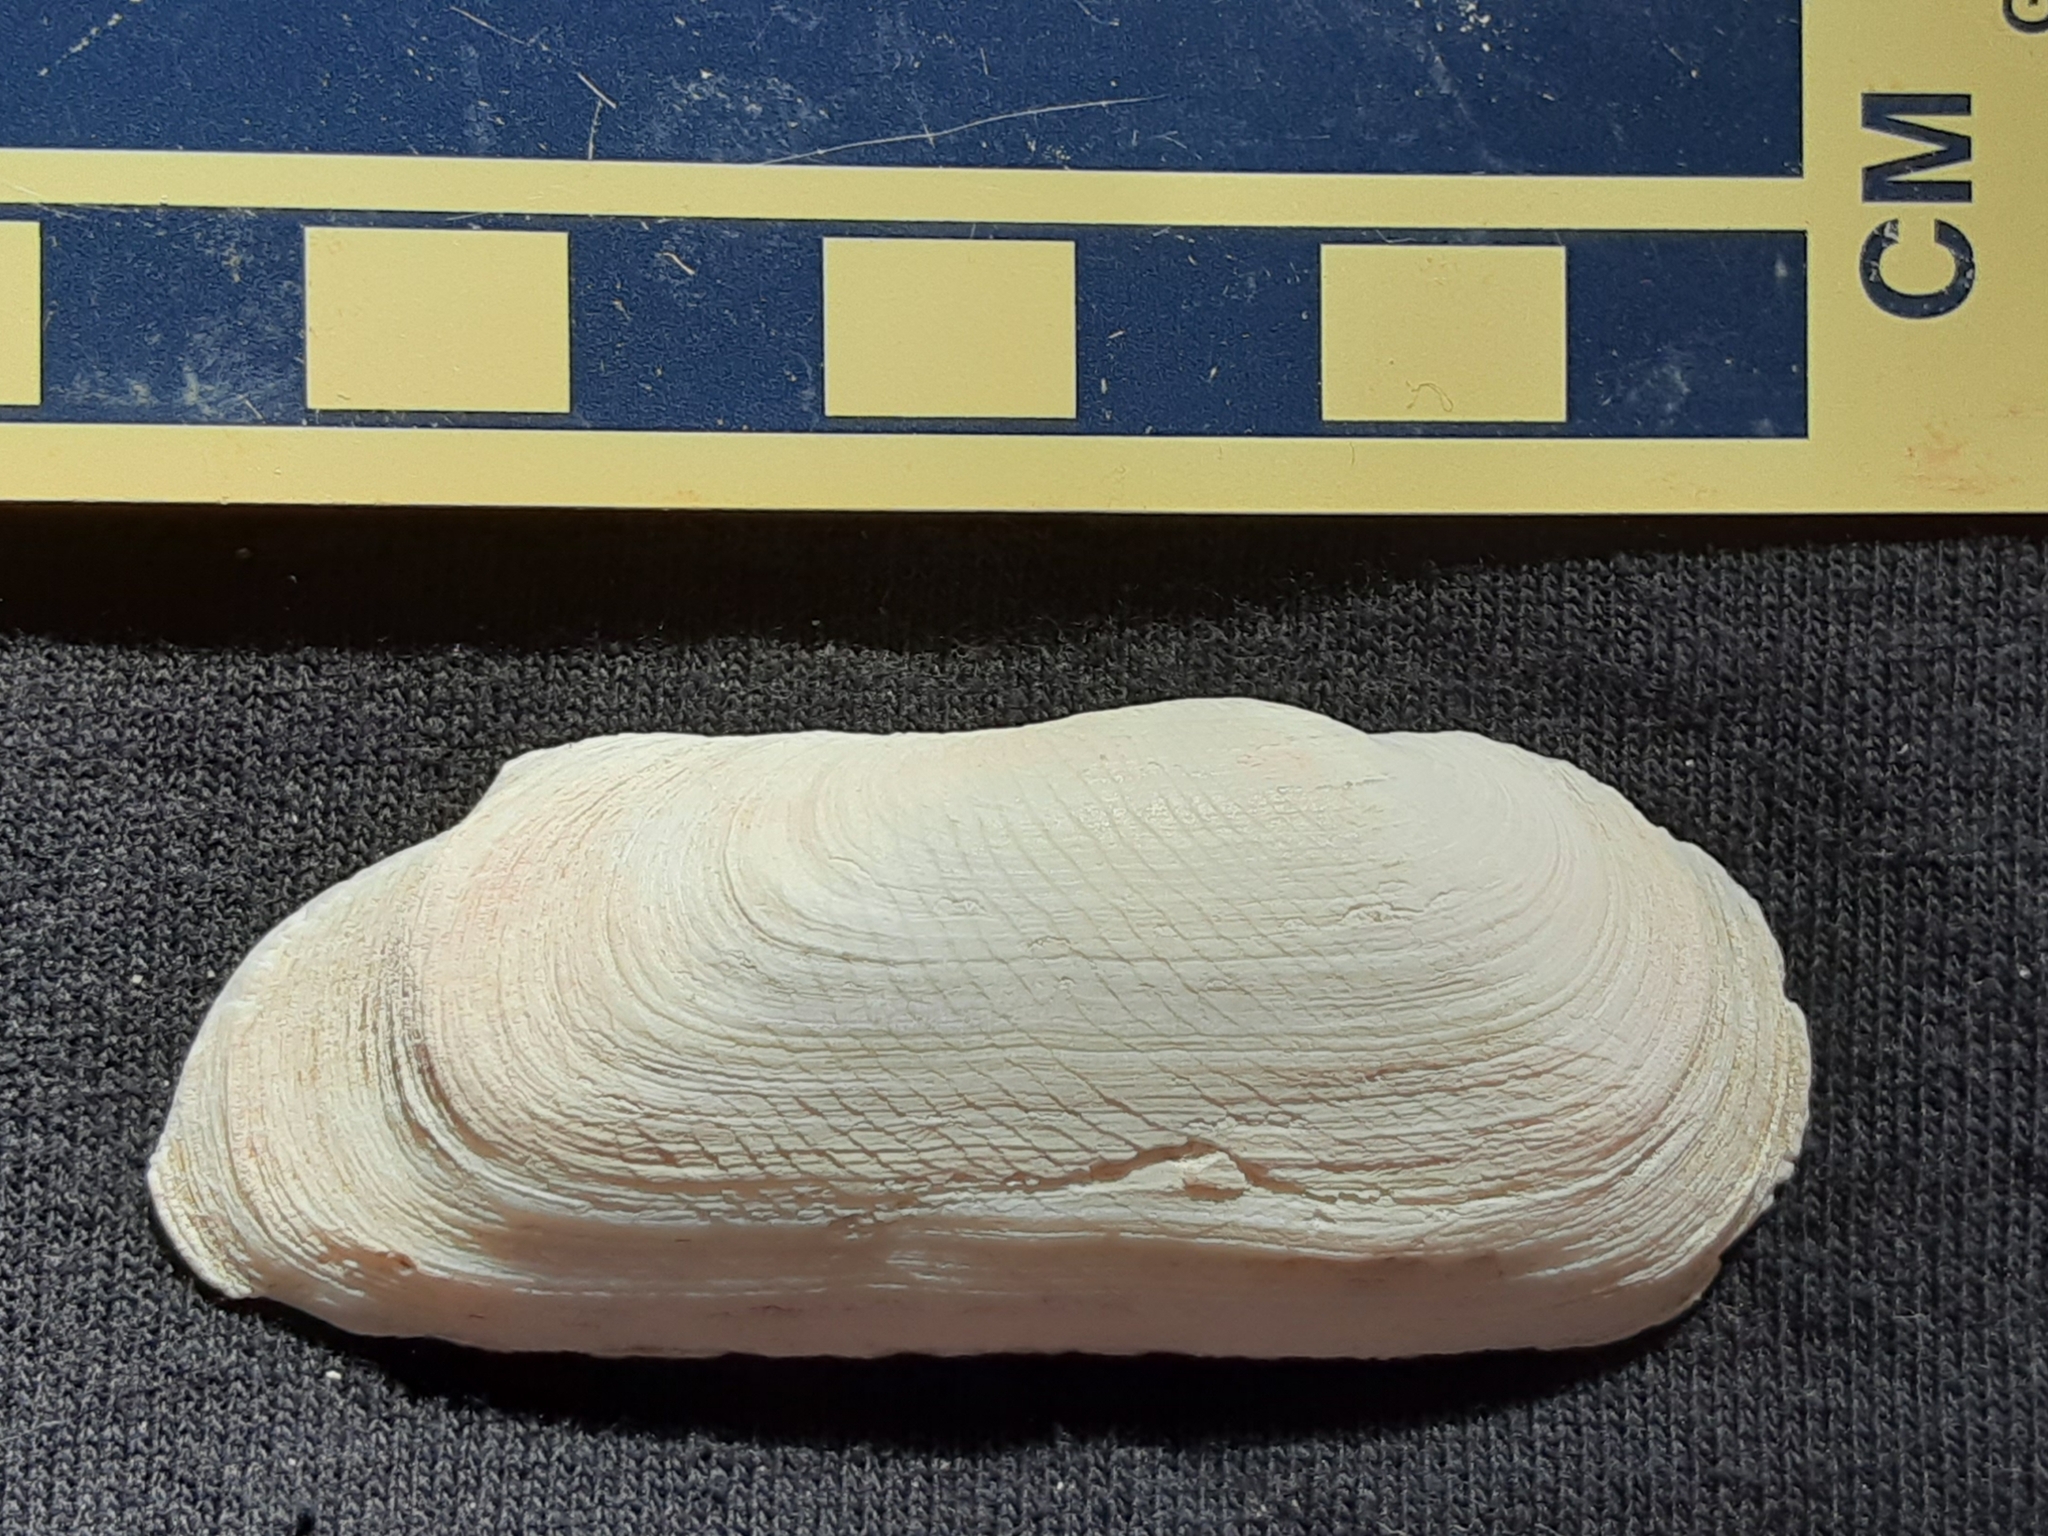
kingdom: Animalia
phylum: Mollusca
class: Bivalvia
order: Cardiida
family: Solecurtidae
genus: Tagelus
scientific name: Tagelus plebeius
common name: Stout tagelus
